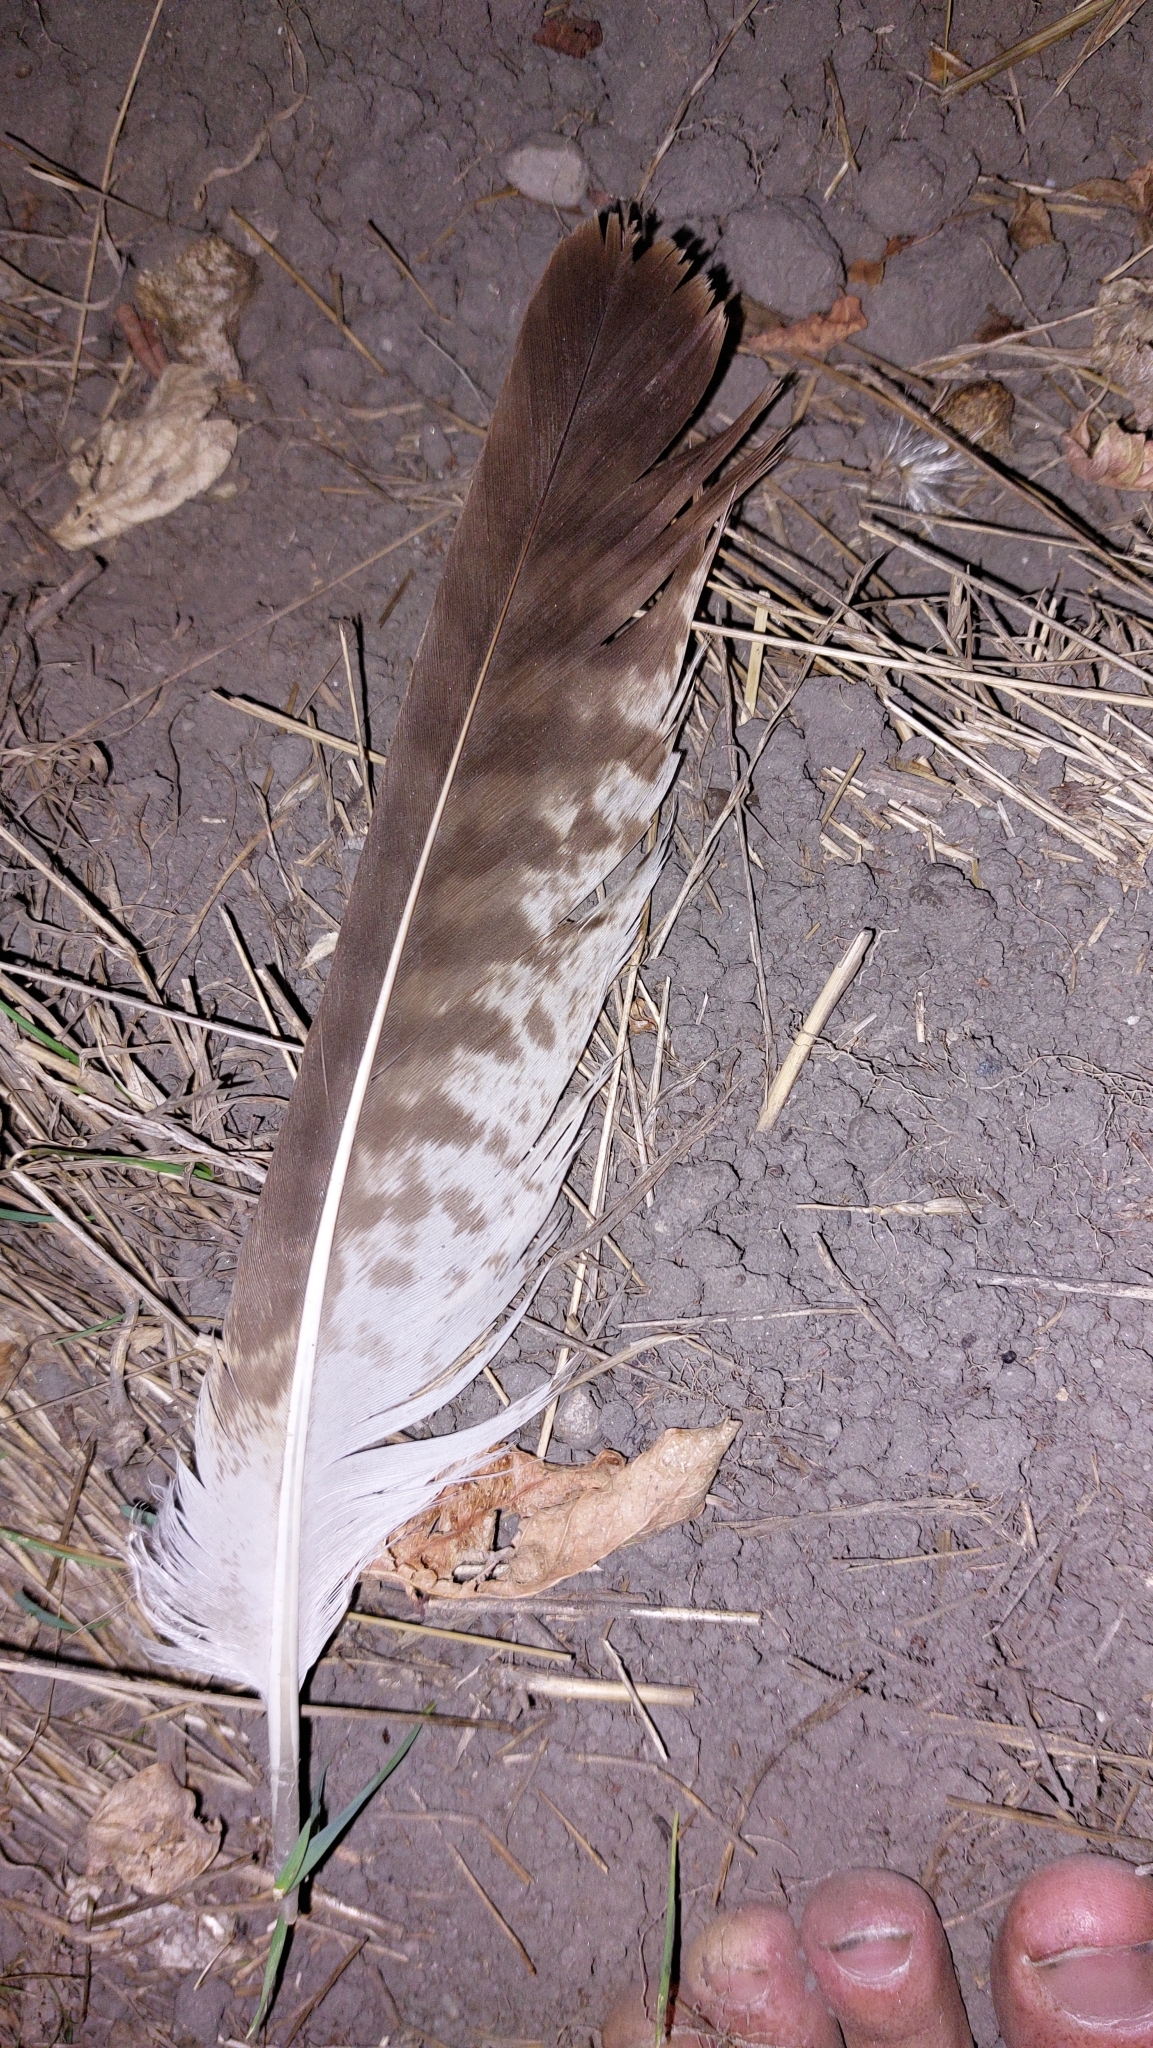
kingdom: Animalia
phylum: Chordata
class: Aves
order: Accipitriformes
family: Accipitridae
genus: Buteo
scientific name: Buteo buteo
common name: Common buzzard
